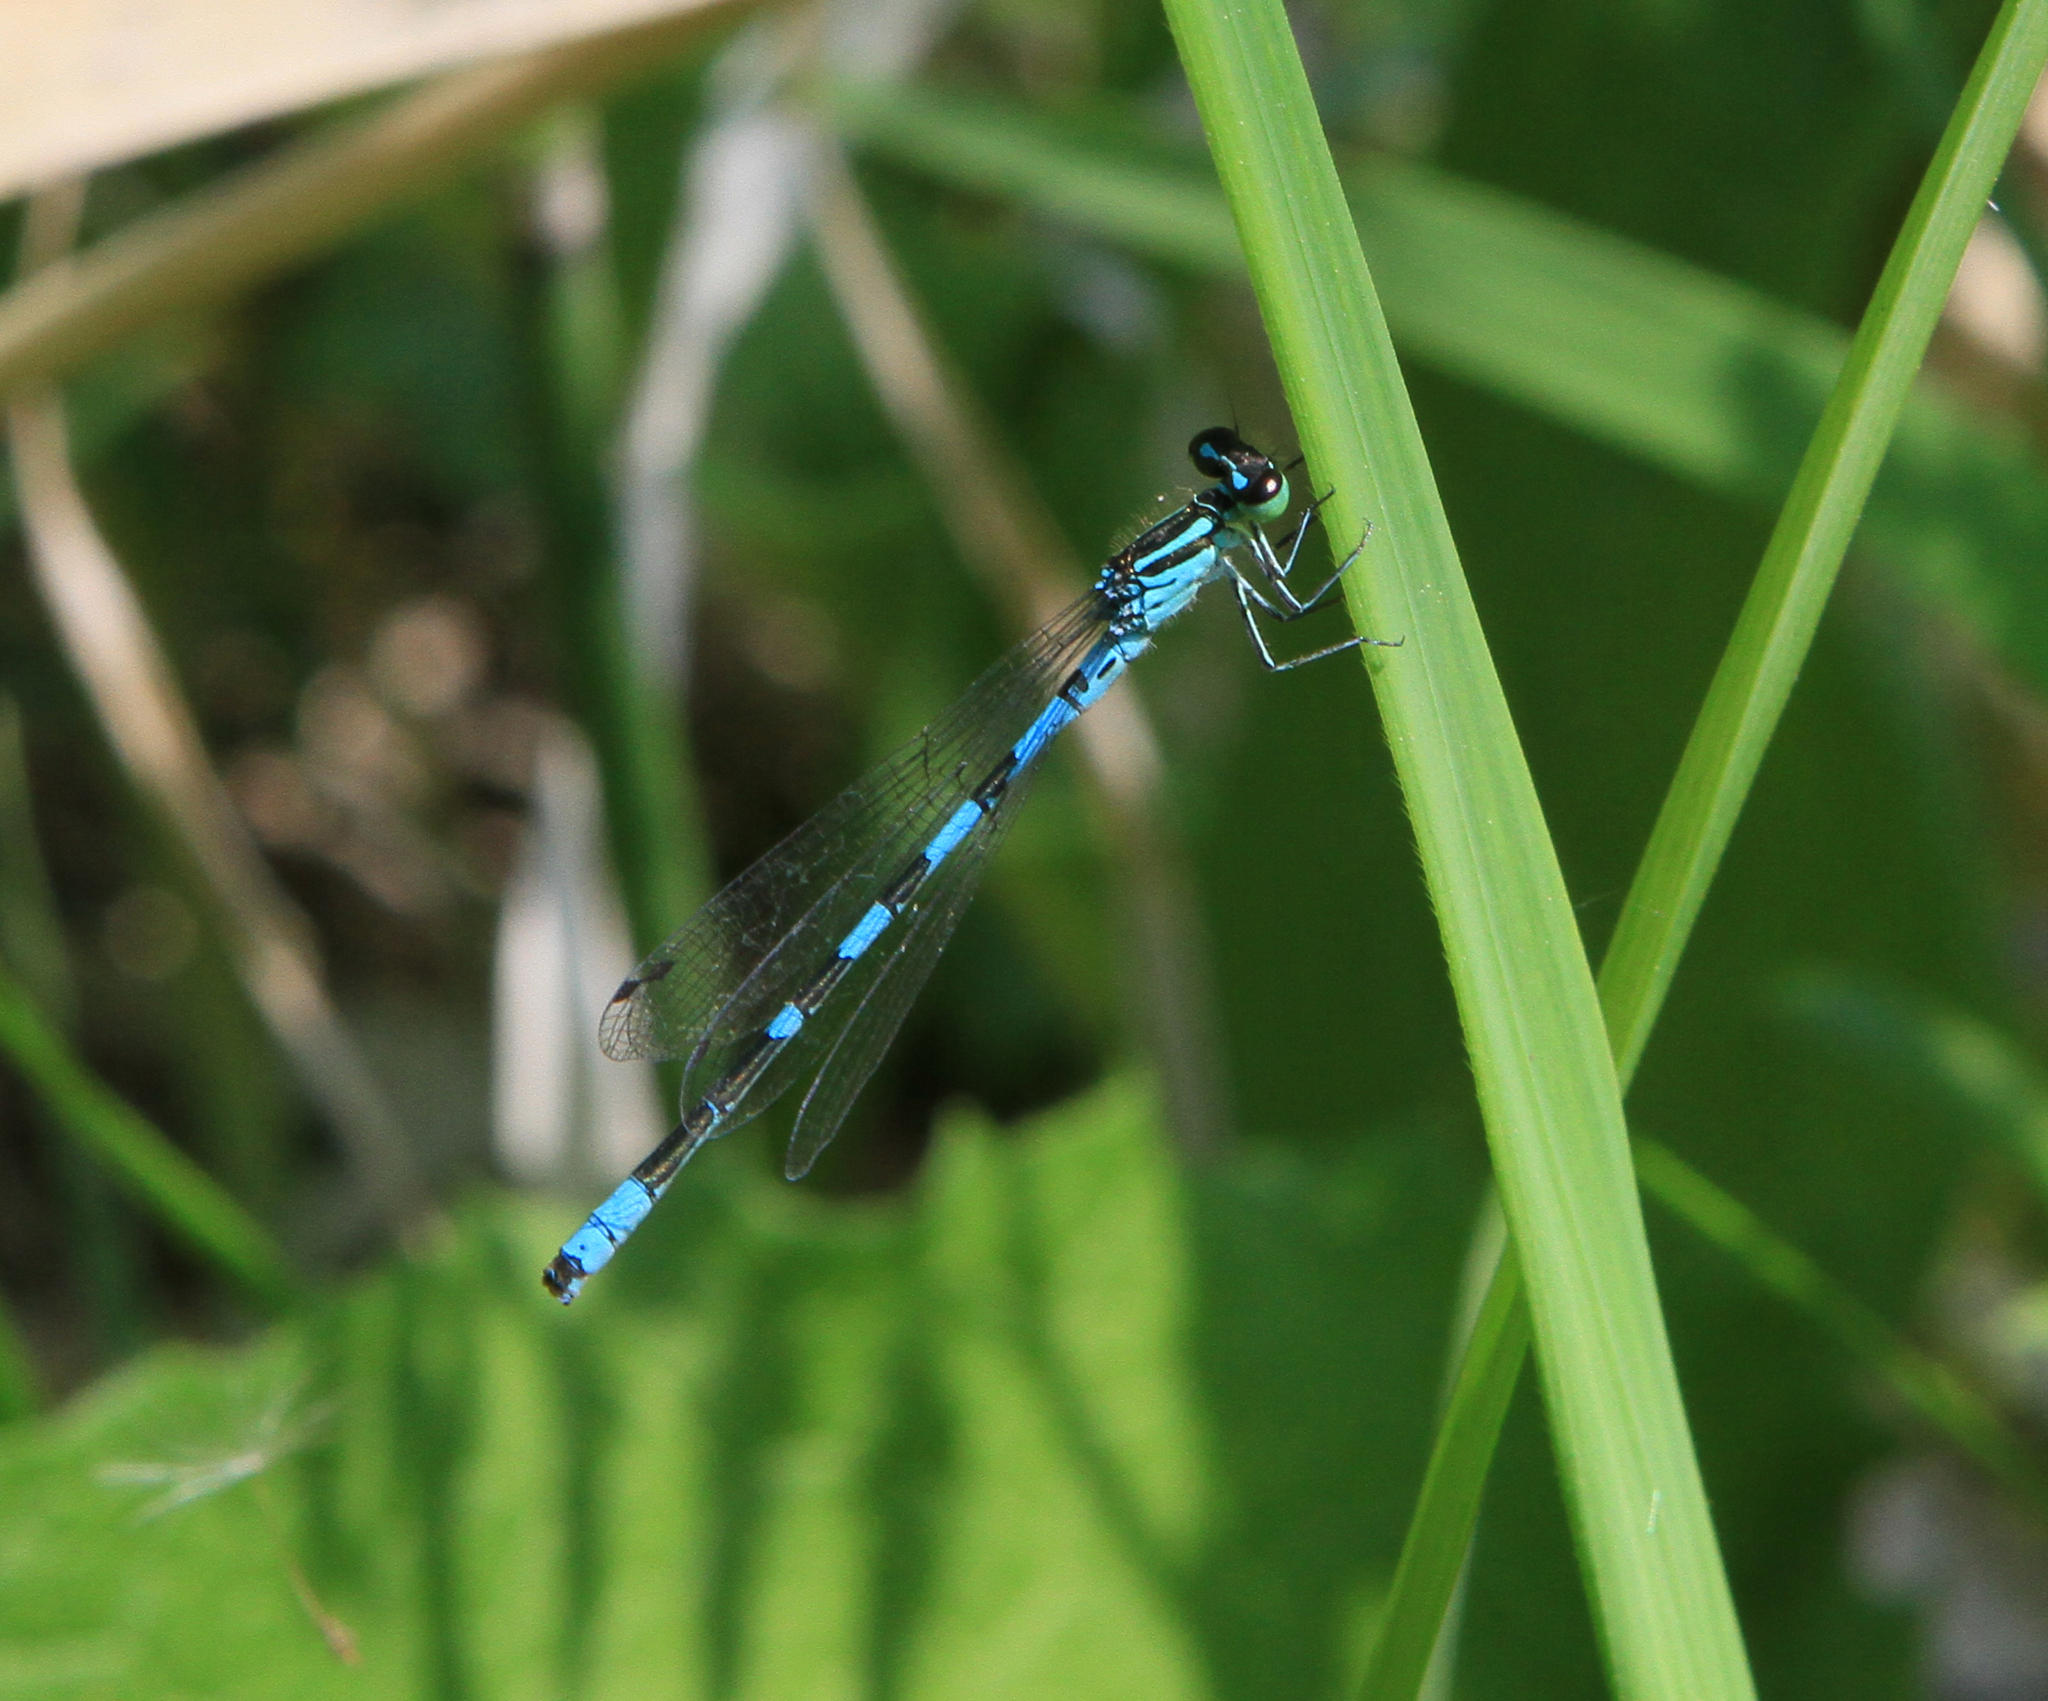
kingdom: Animalia
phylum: Arthropoda
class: Insecta
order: Odonata
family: Coenagrionidae
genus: Coenagrion
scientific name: Coenagrion hastulatum
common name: Spearhead bluet
